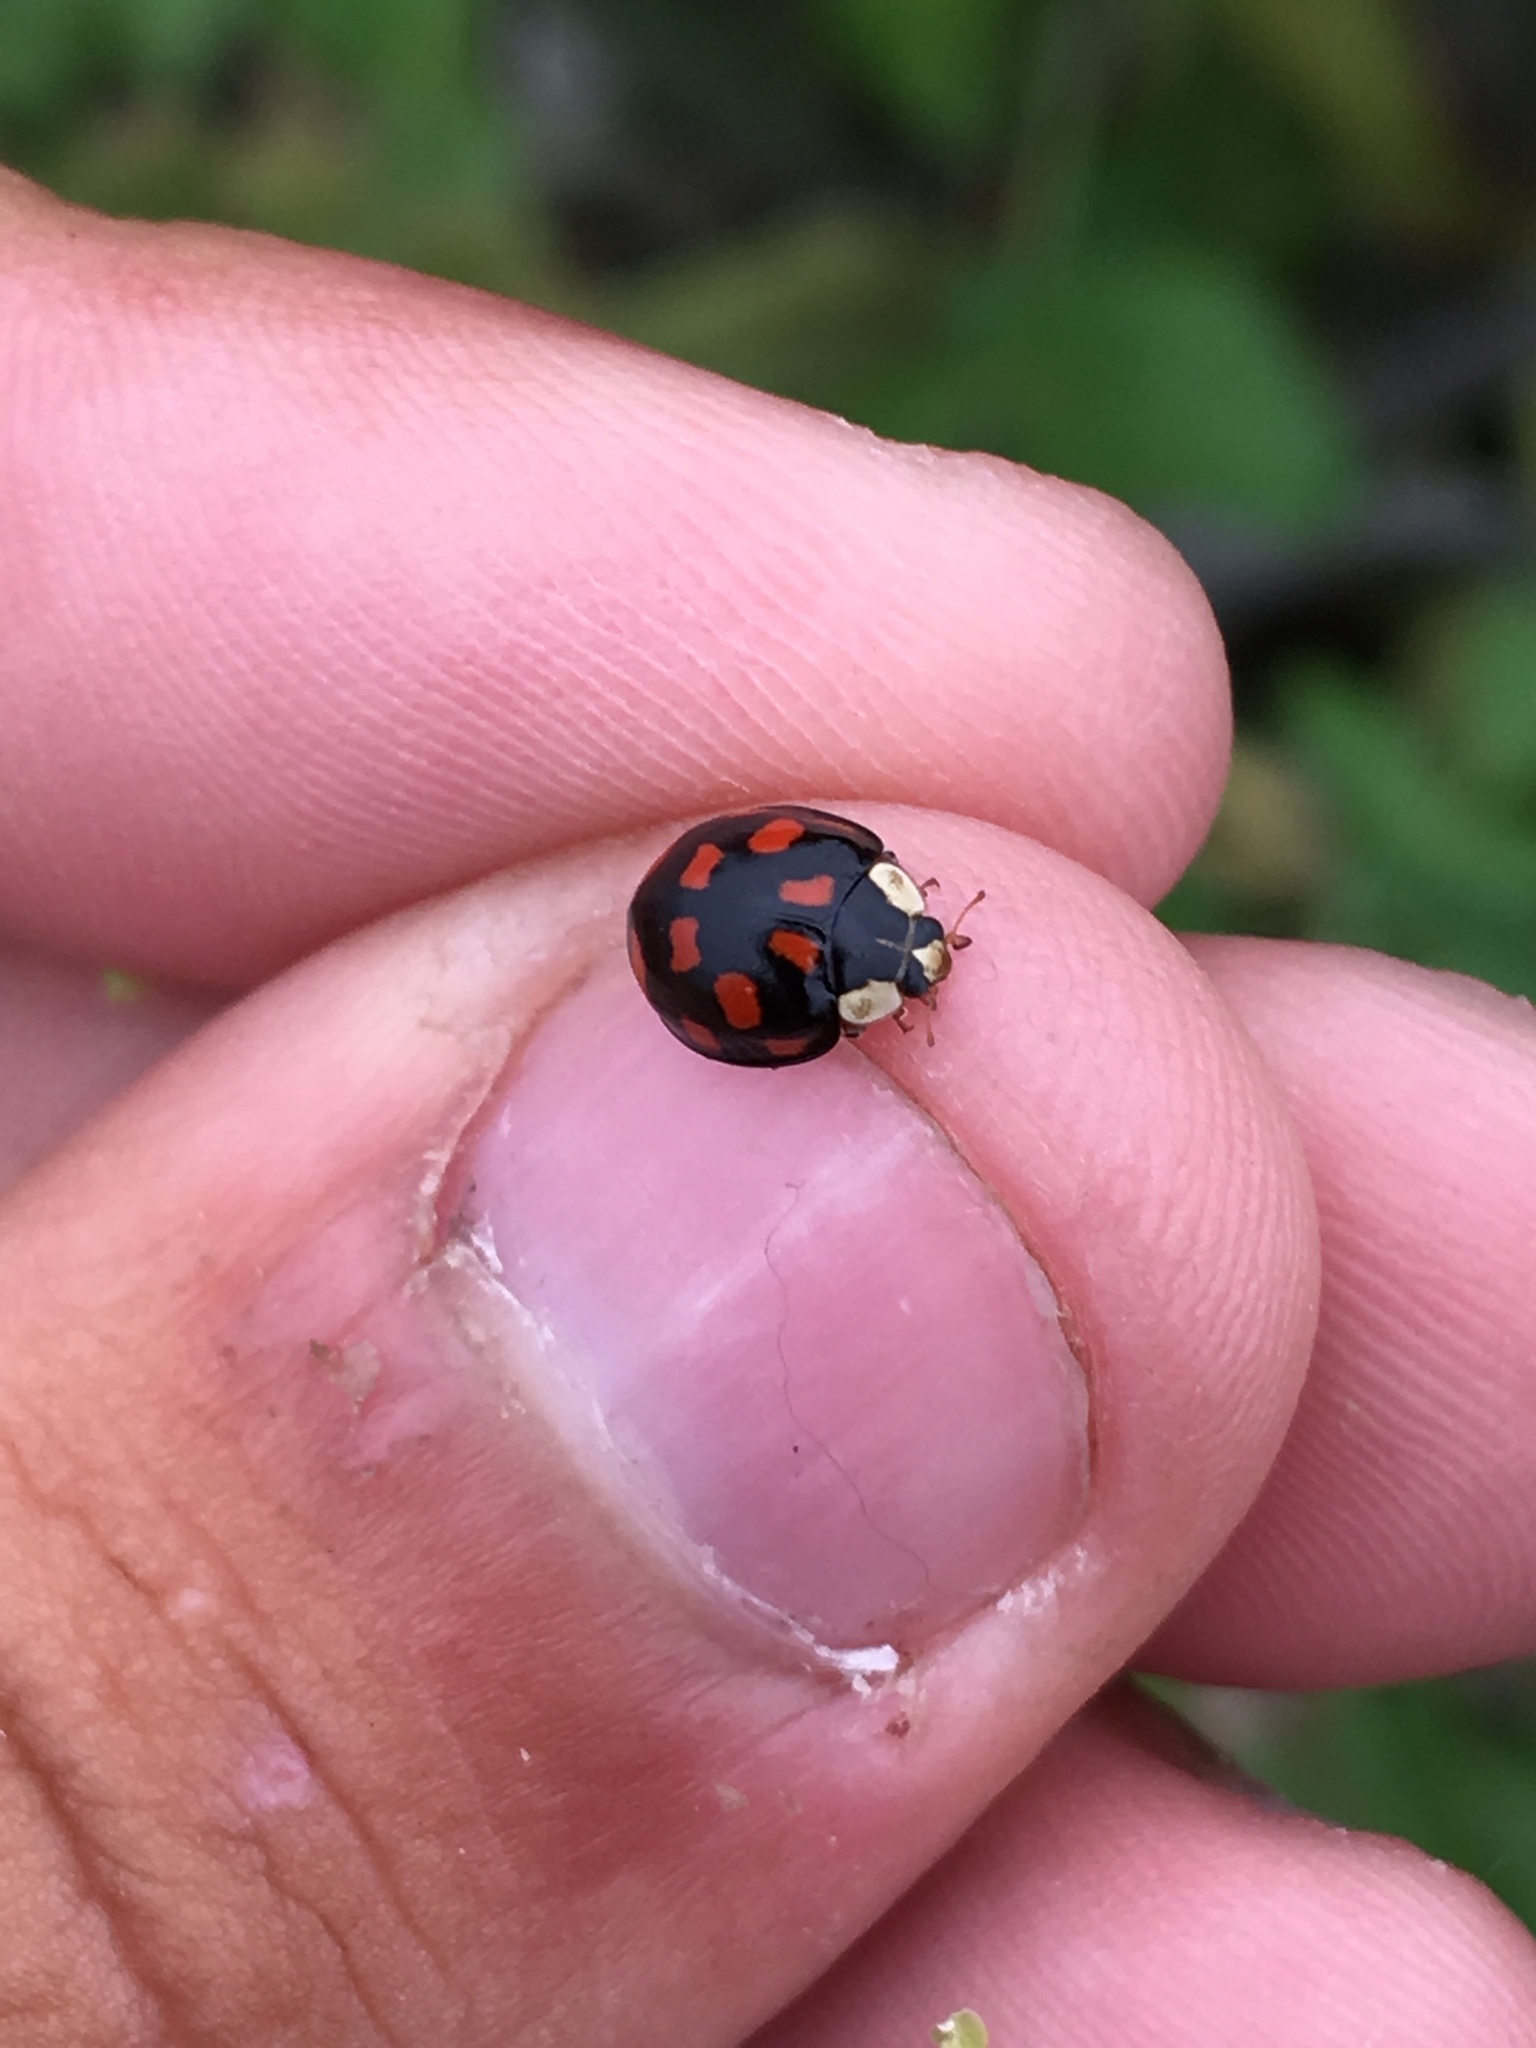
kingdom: Animalia
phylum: Arthropoda
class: Insecta
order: Coleoptera
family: Coccinellidae
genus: Harmonia
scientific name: Harmonia axyridis
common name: Harlequin ladybird
